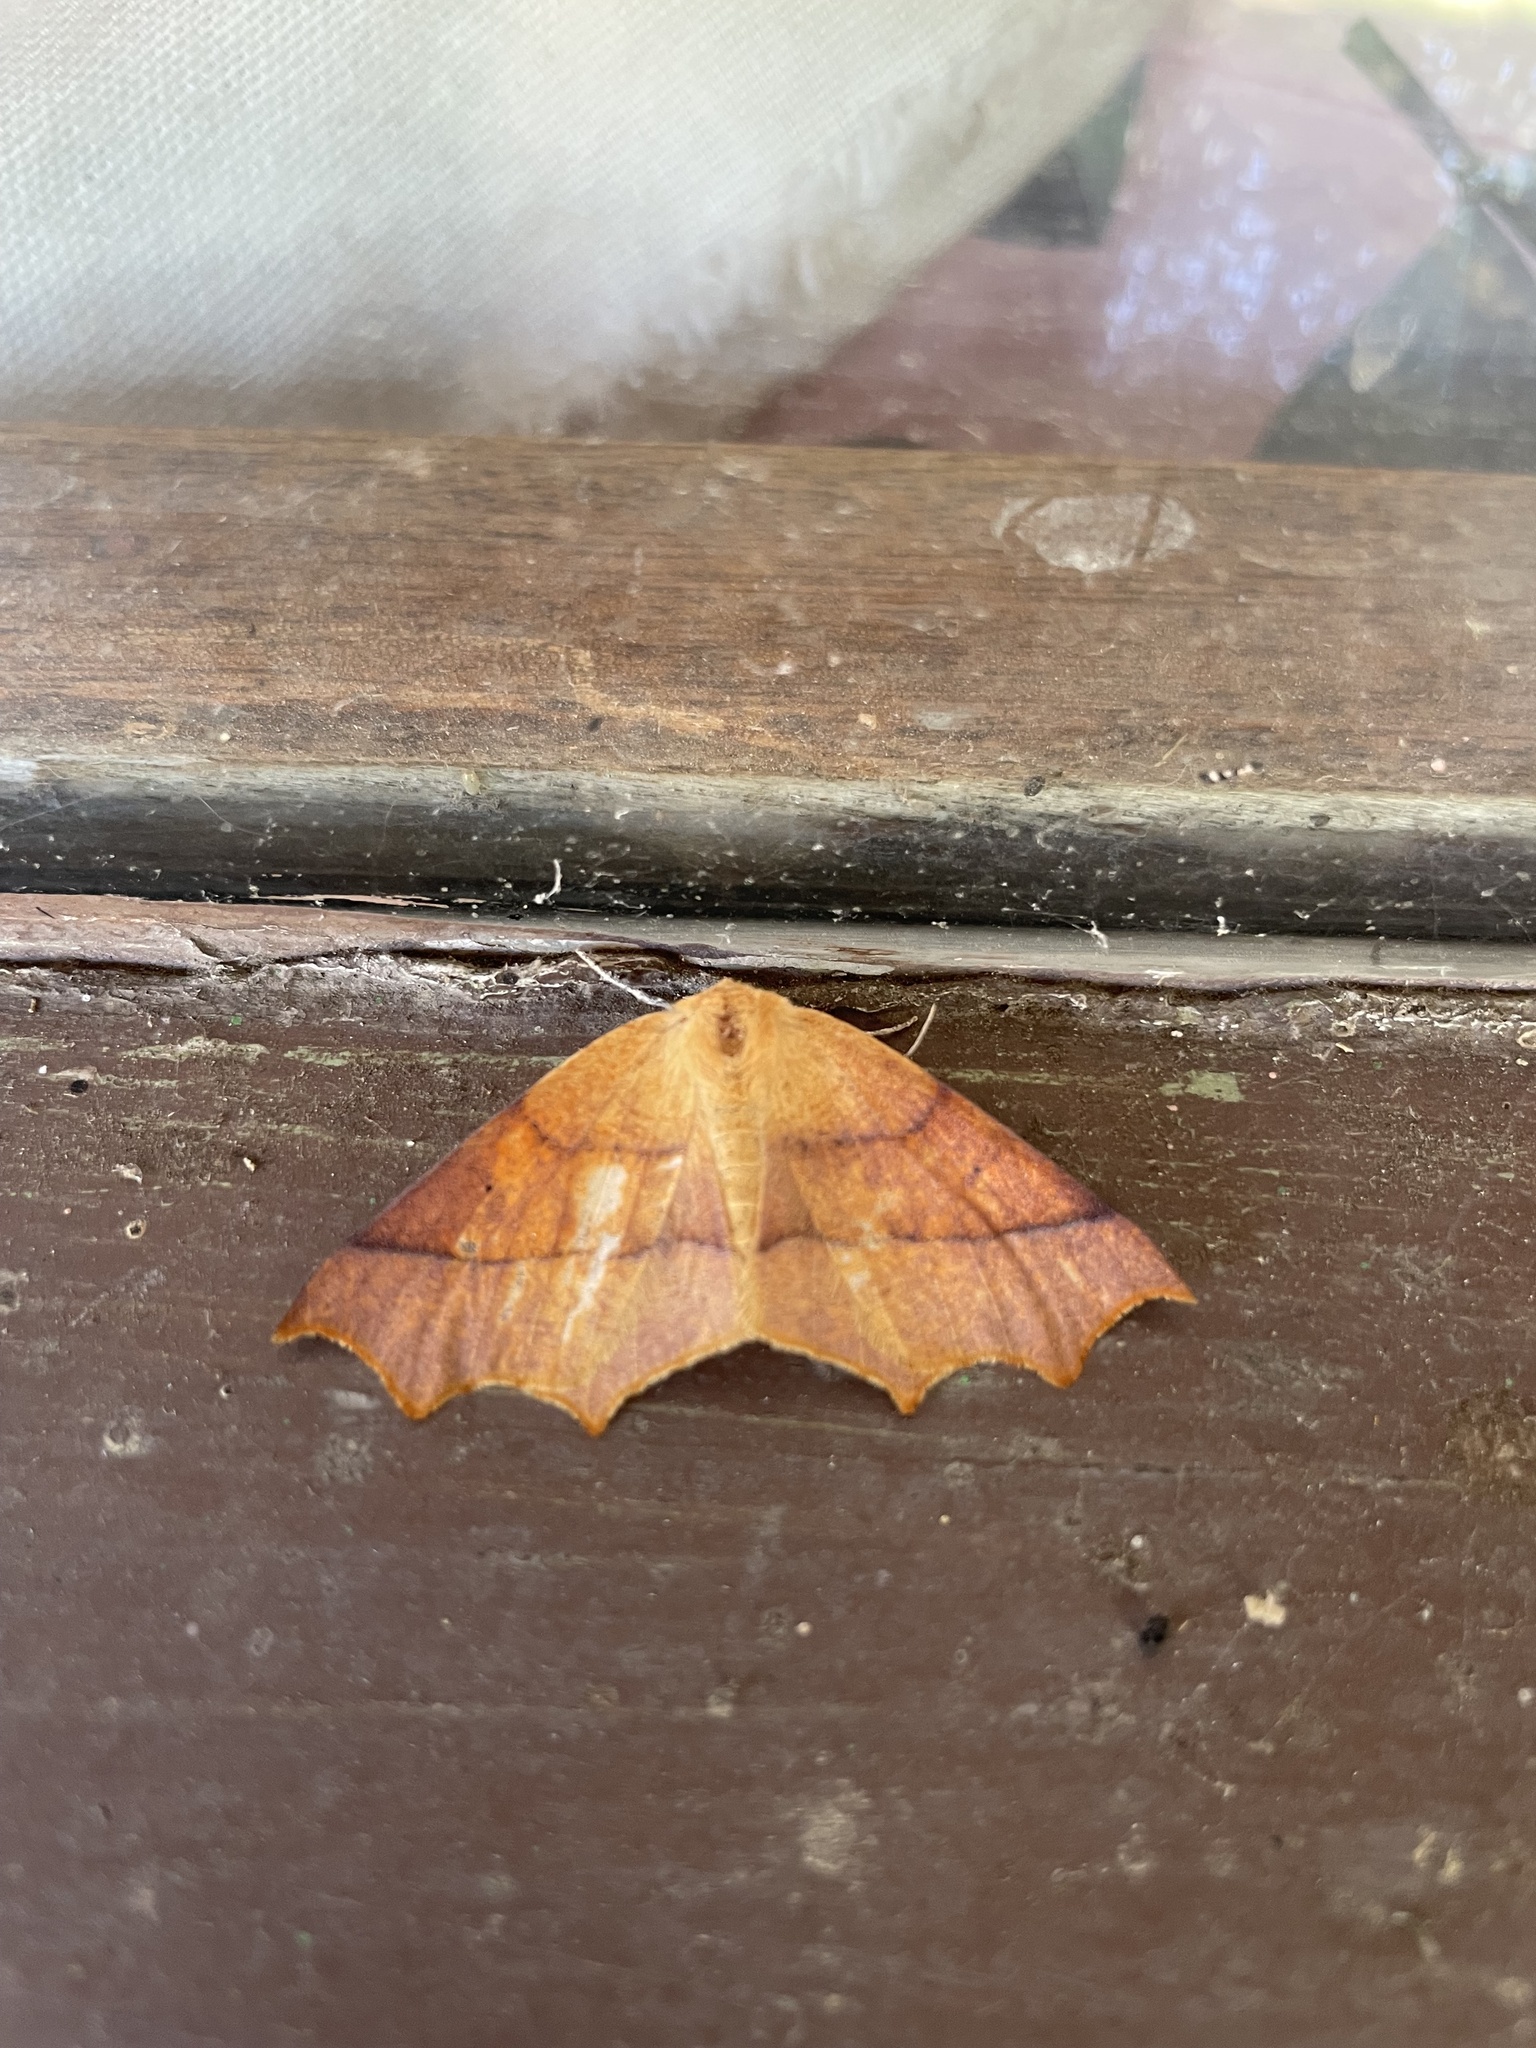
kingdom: Animalia
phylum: Arthropoda
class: Insecta
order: Lepidoptera
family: Geometridae
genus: Tetracis
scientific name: Tetracis cervinaria
